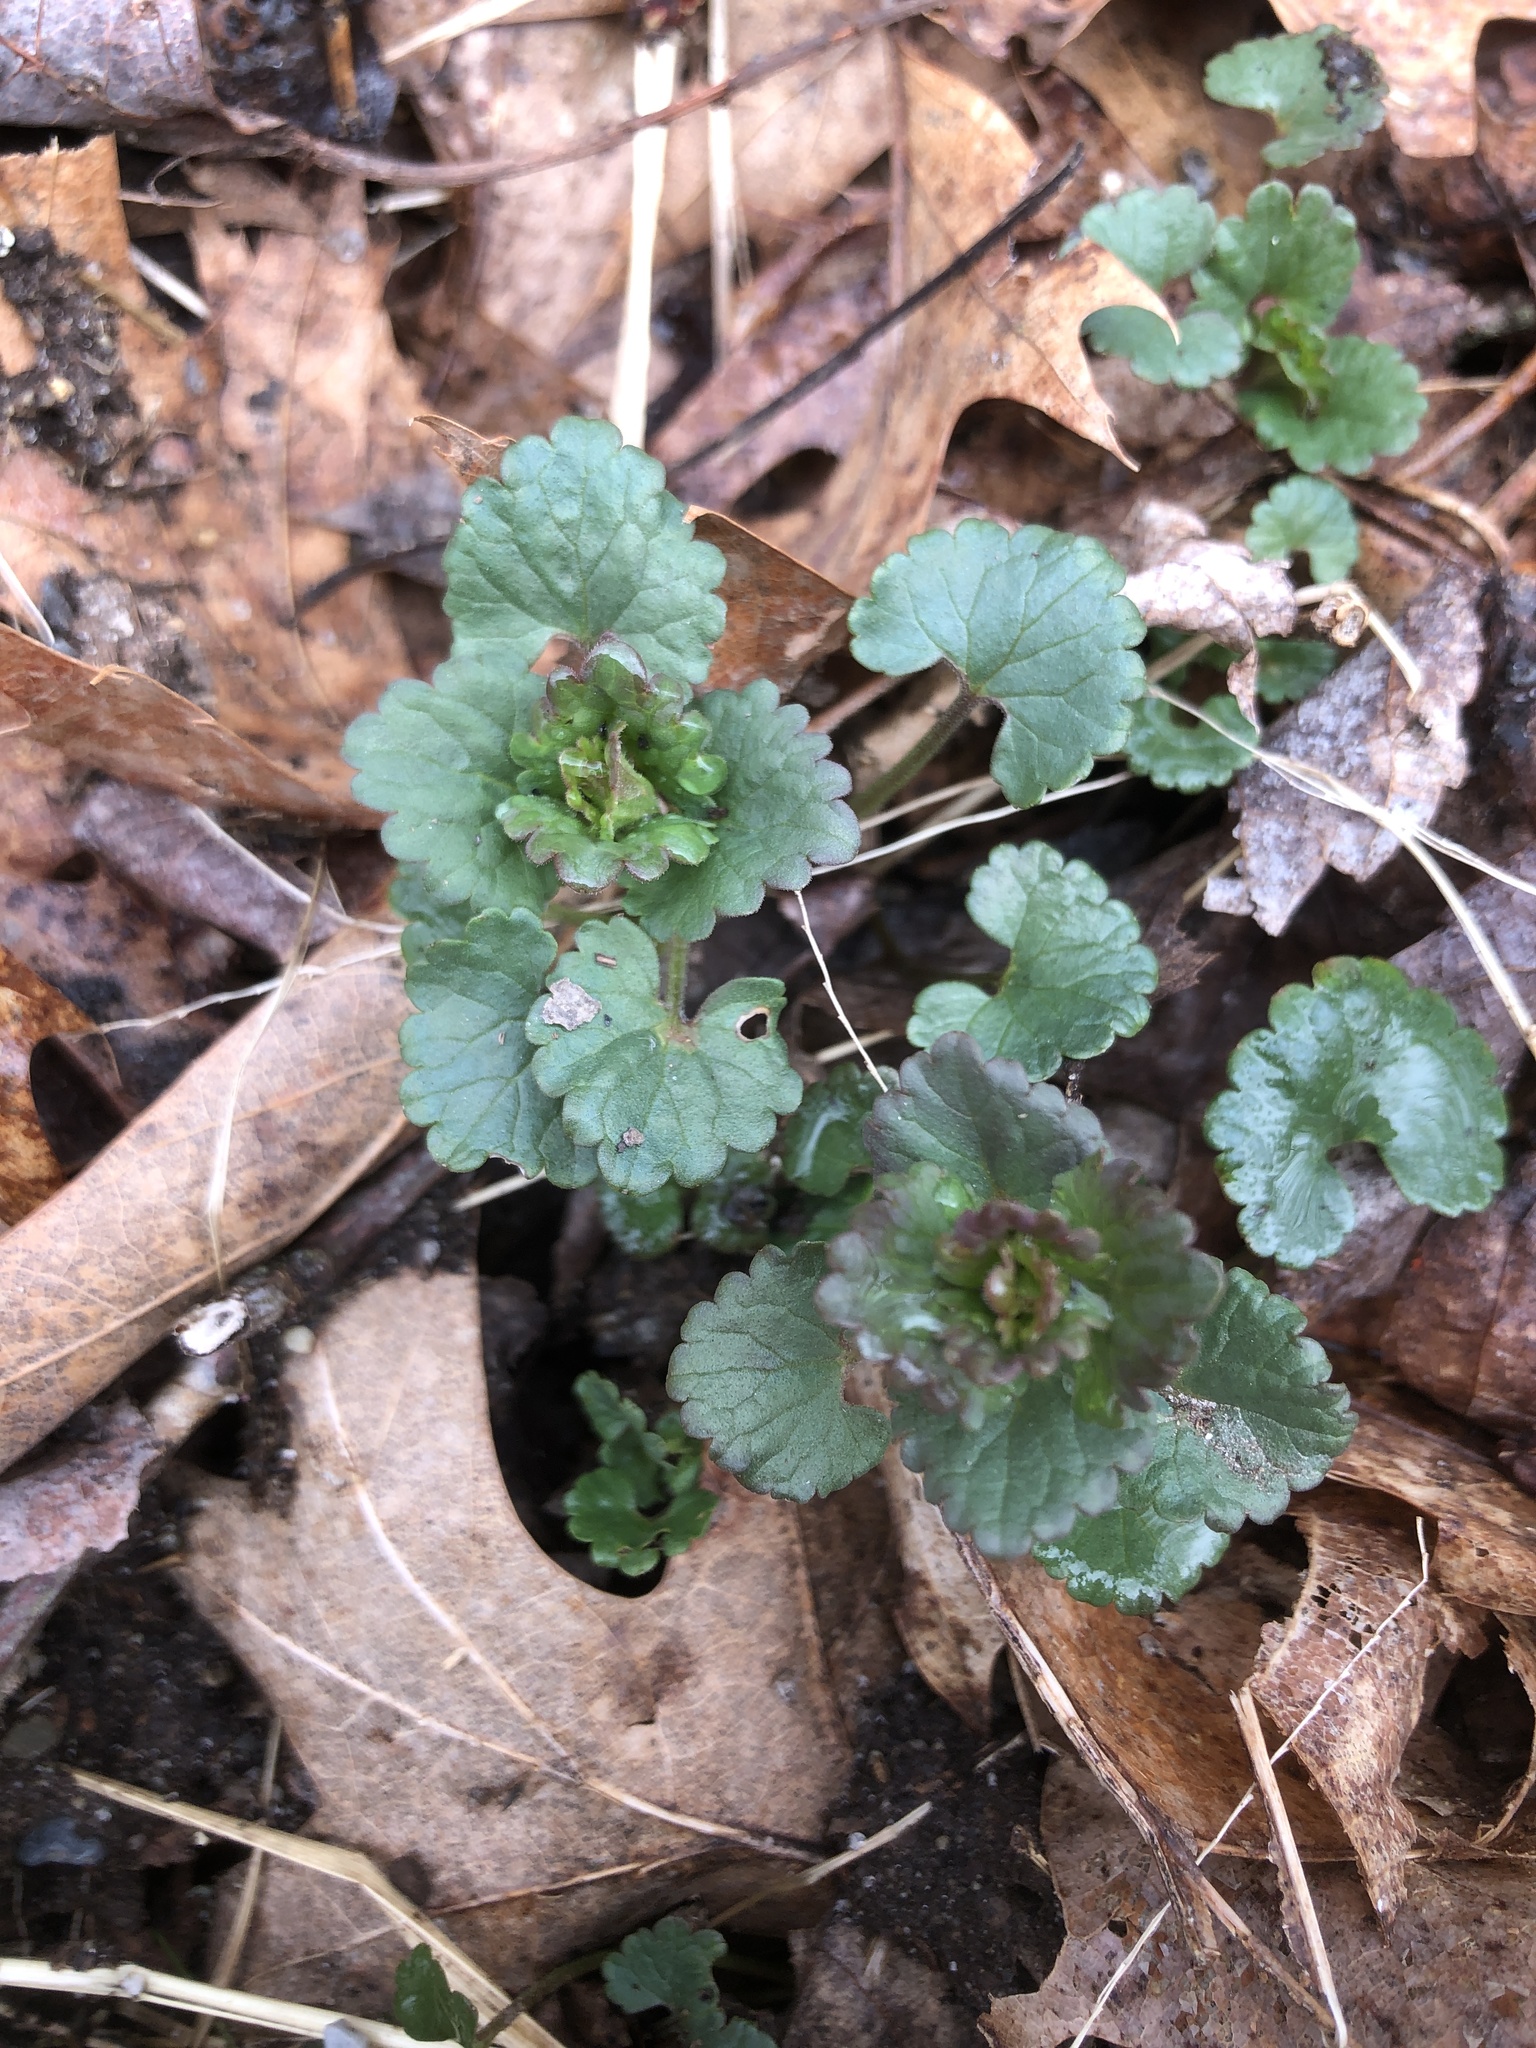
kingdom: Plantae
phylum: Tracheophyta
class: Magnoliopsida
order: Lamiales
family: Lamiaceae
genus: Glechoma
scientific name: Glechoma hederacea
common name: Ground ivy
